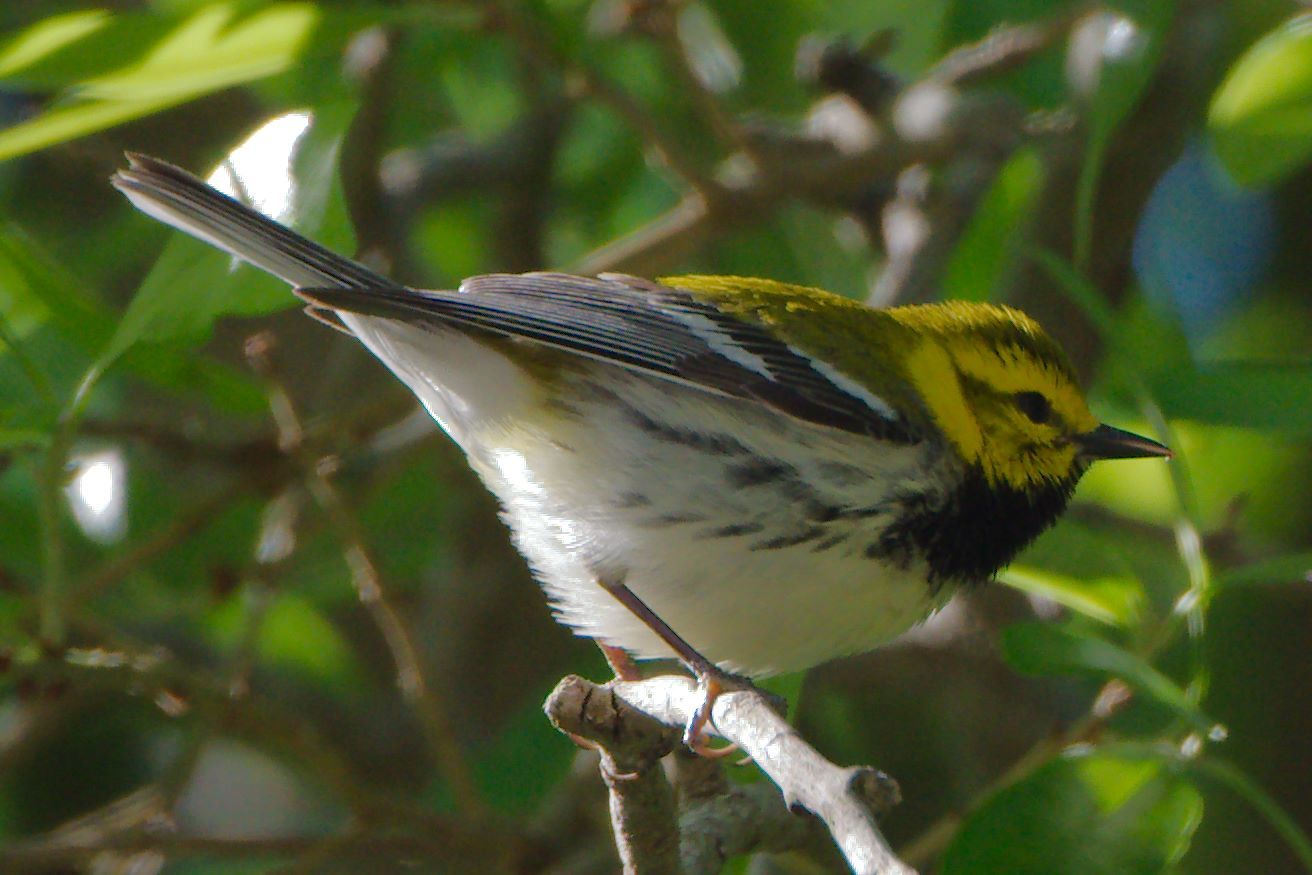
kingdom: Animalia
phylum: Chordata
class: Aves
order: Passeriformes
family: Parulidae
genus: Setophaga
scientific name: Setophaga virens
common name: Black-throated green warbler
